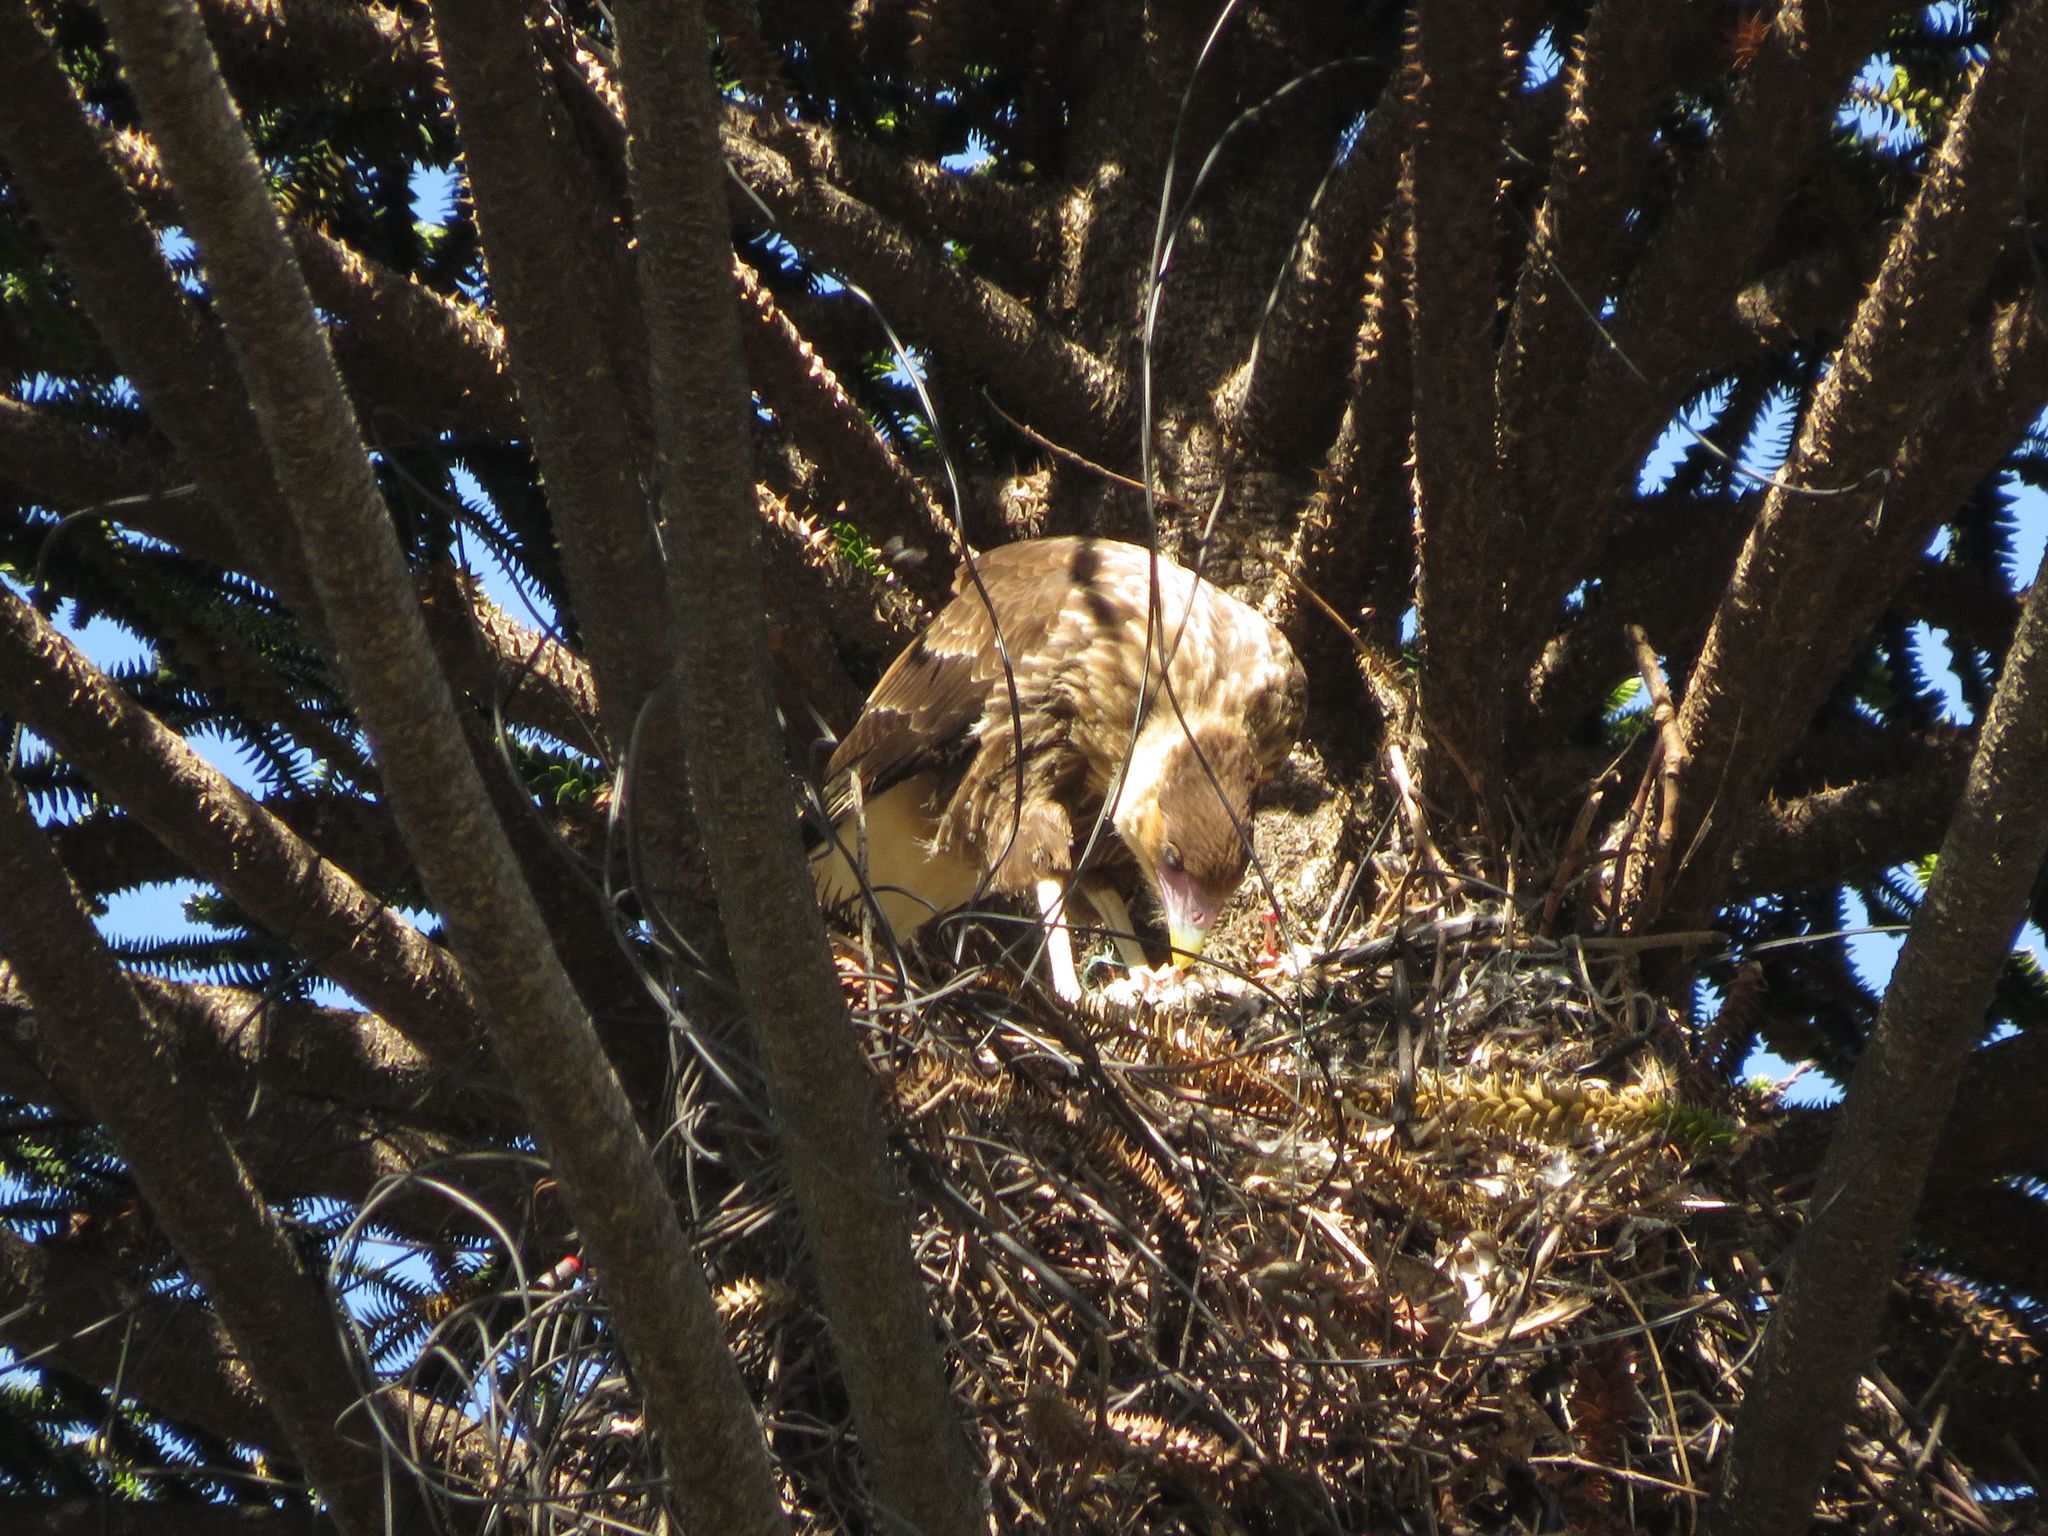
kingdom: Animalia
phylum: Chordata
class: Aves
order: Falconiformes
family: Falconidae
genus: Caracara
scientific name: Caracara plancus
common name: Southern caracara
